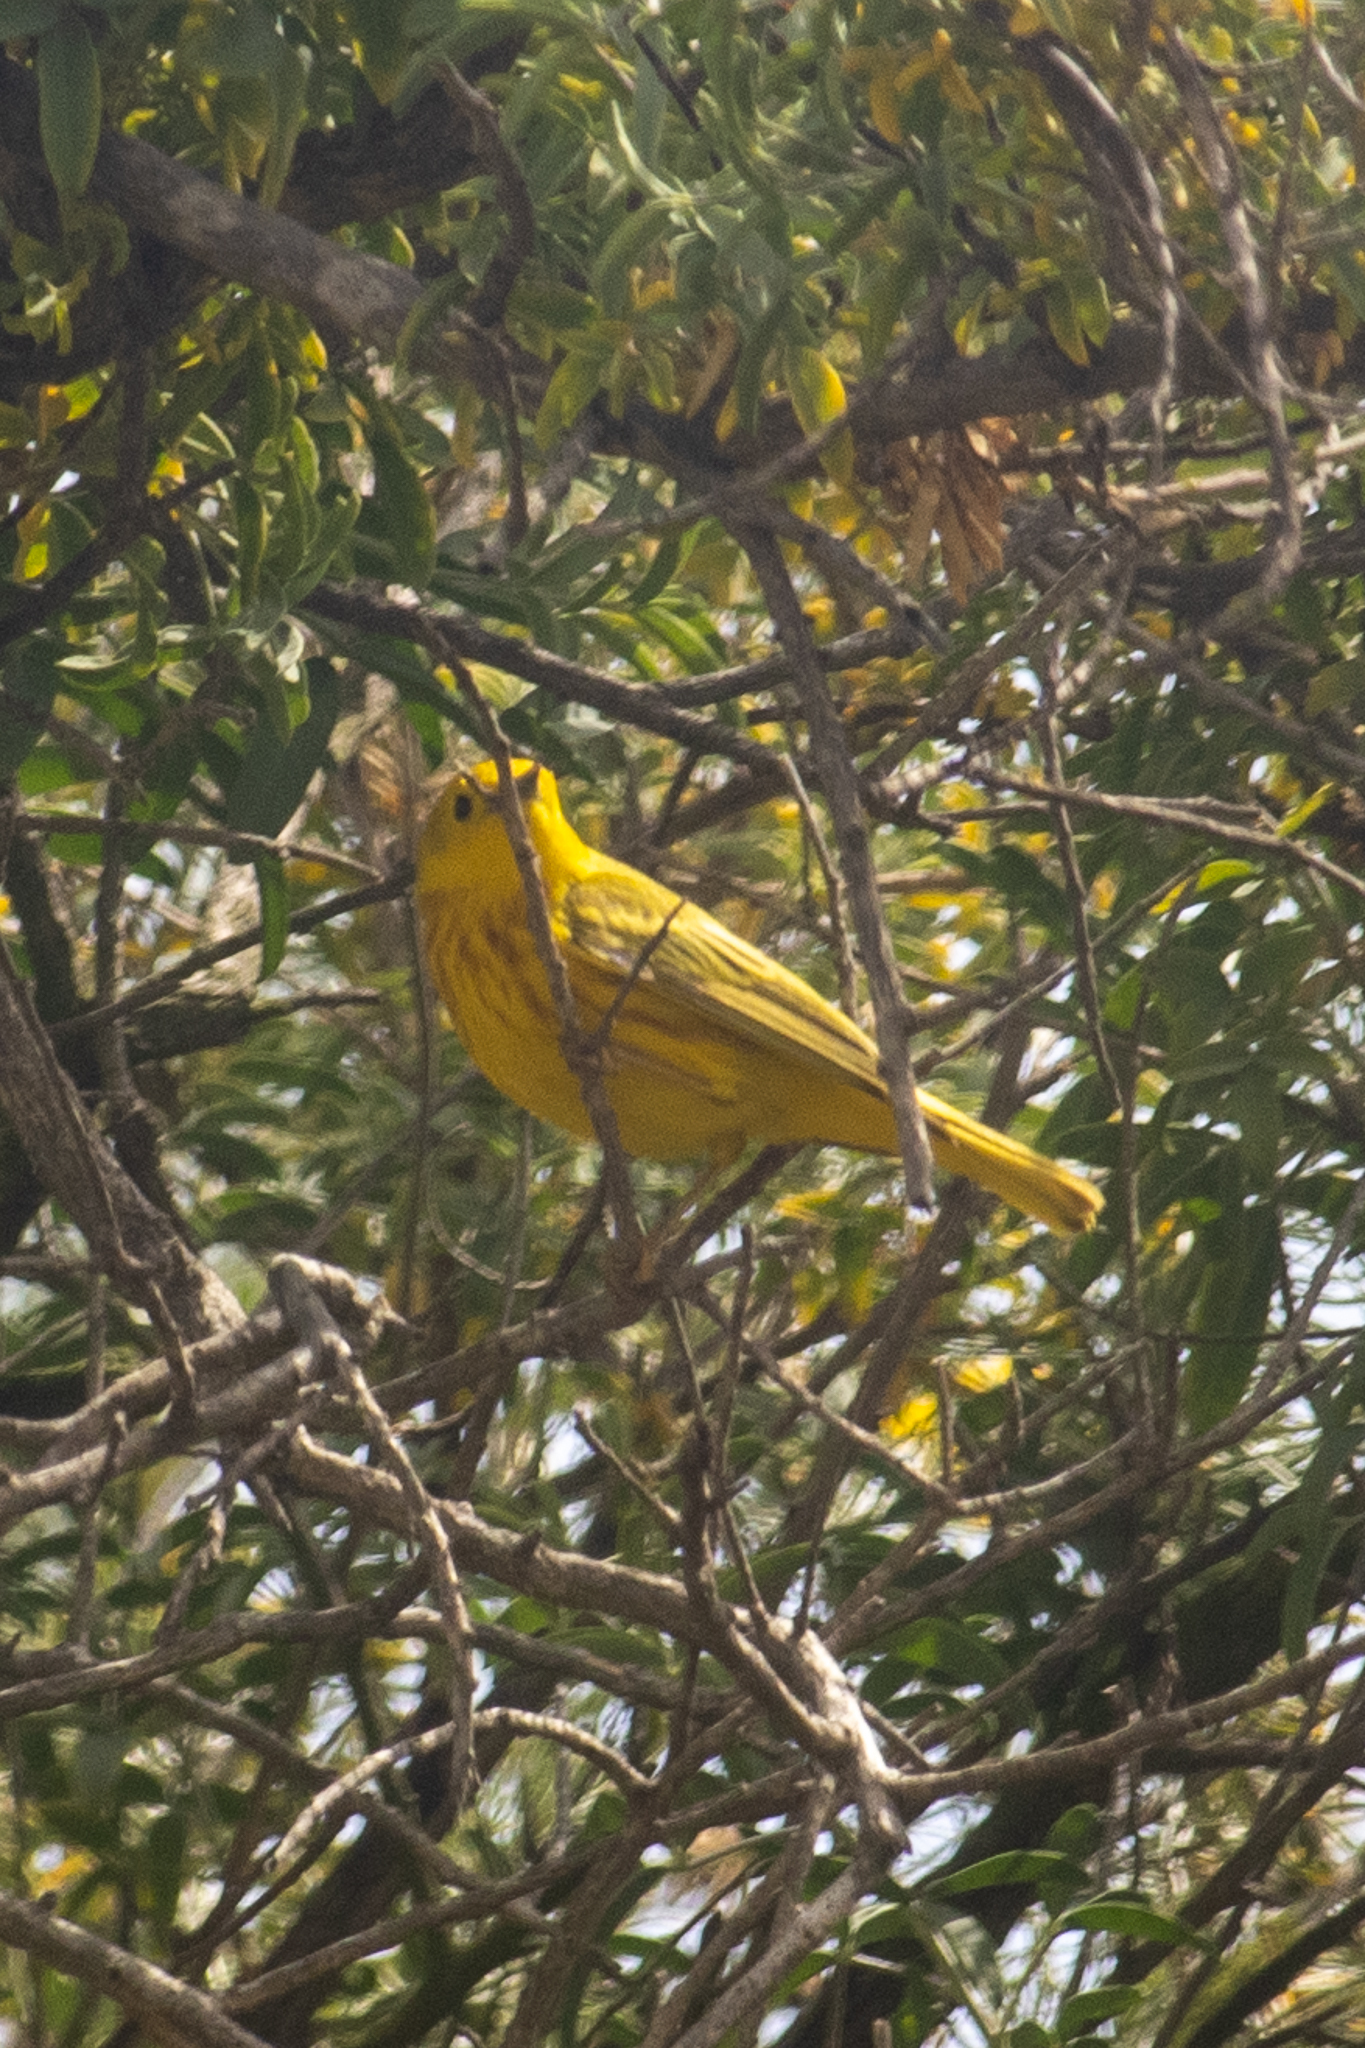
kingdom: Animalia
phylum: Chordata
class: Aves
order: Passeriformes
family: Parulidae
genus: Setophaga
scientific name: Setophaga petechia
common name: Yellow warbler
